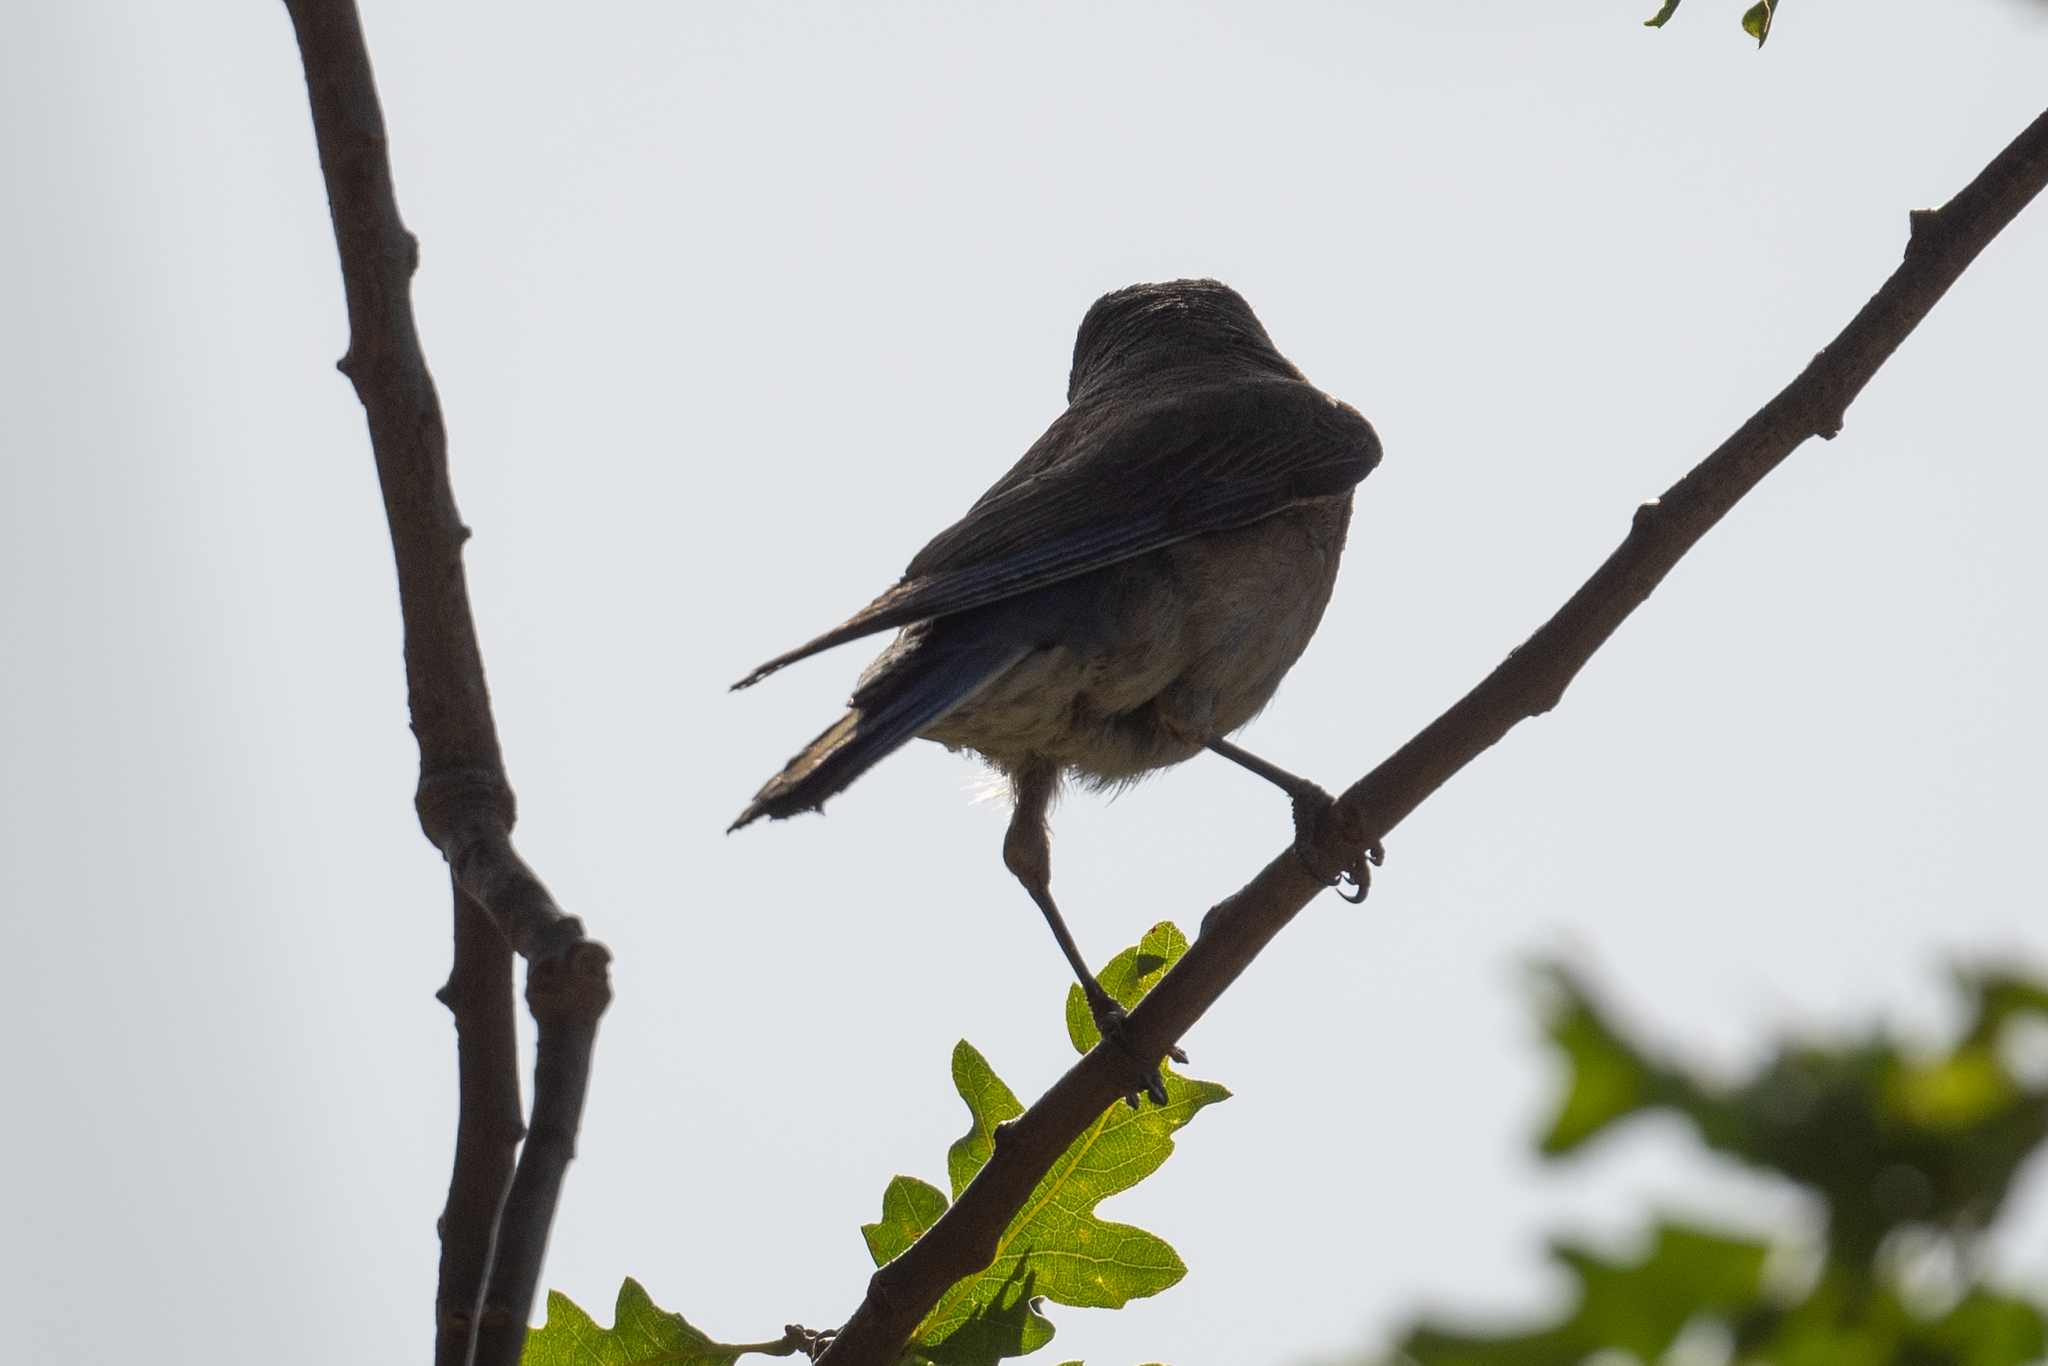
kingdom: Animalia
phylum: Chordata
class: Aves
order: Passeriformes
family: Turdidae
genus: Sialia
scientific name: Sialia mexicana
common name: Western bluebird
